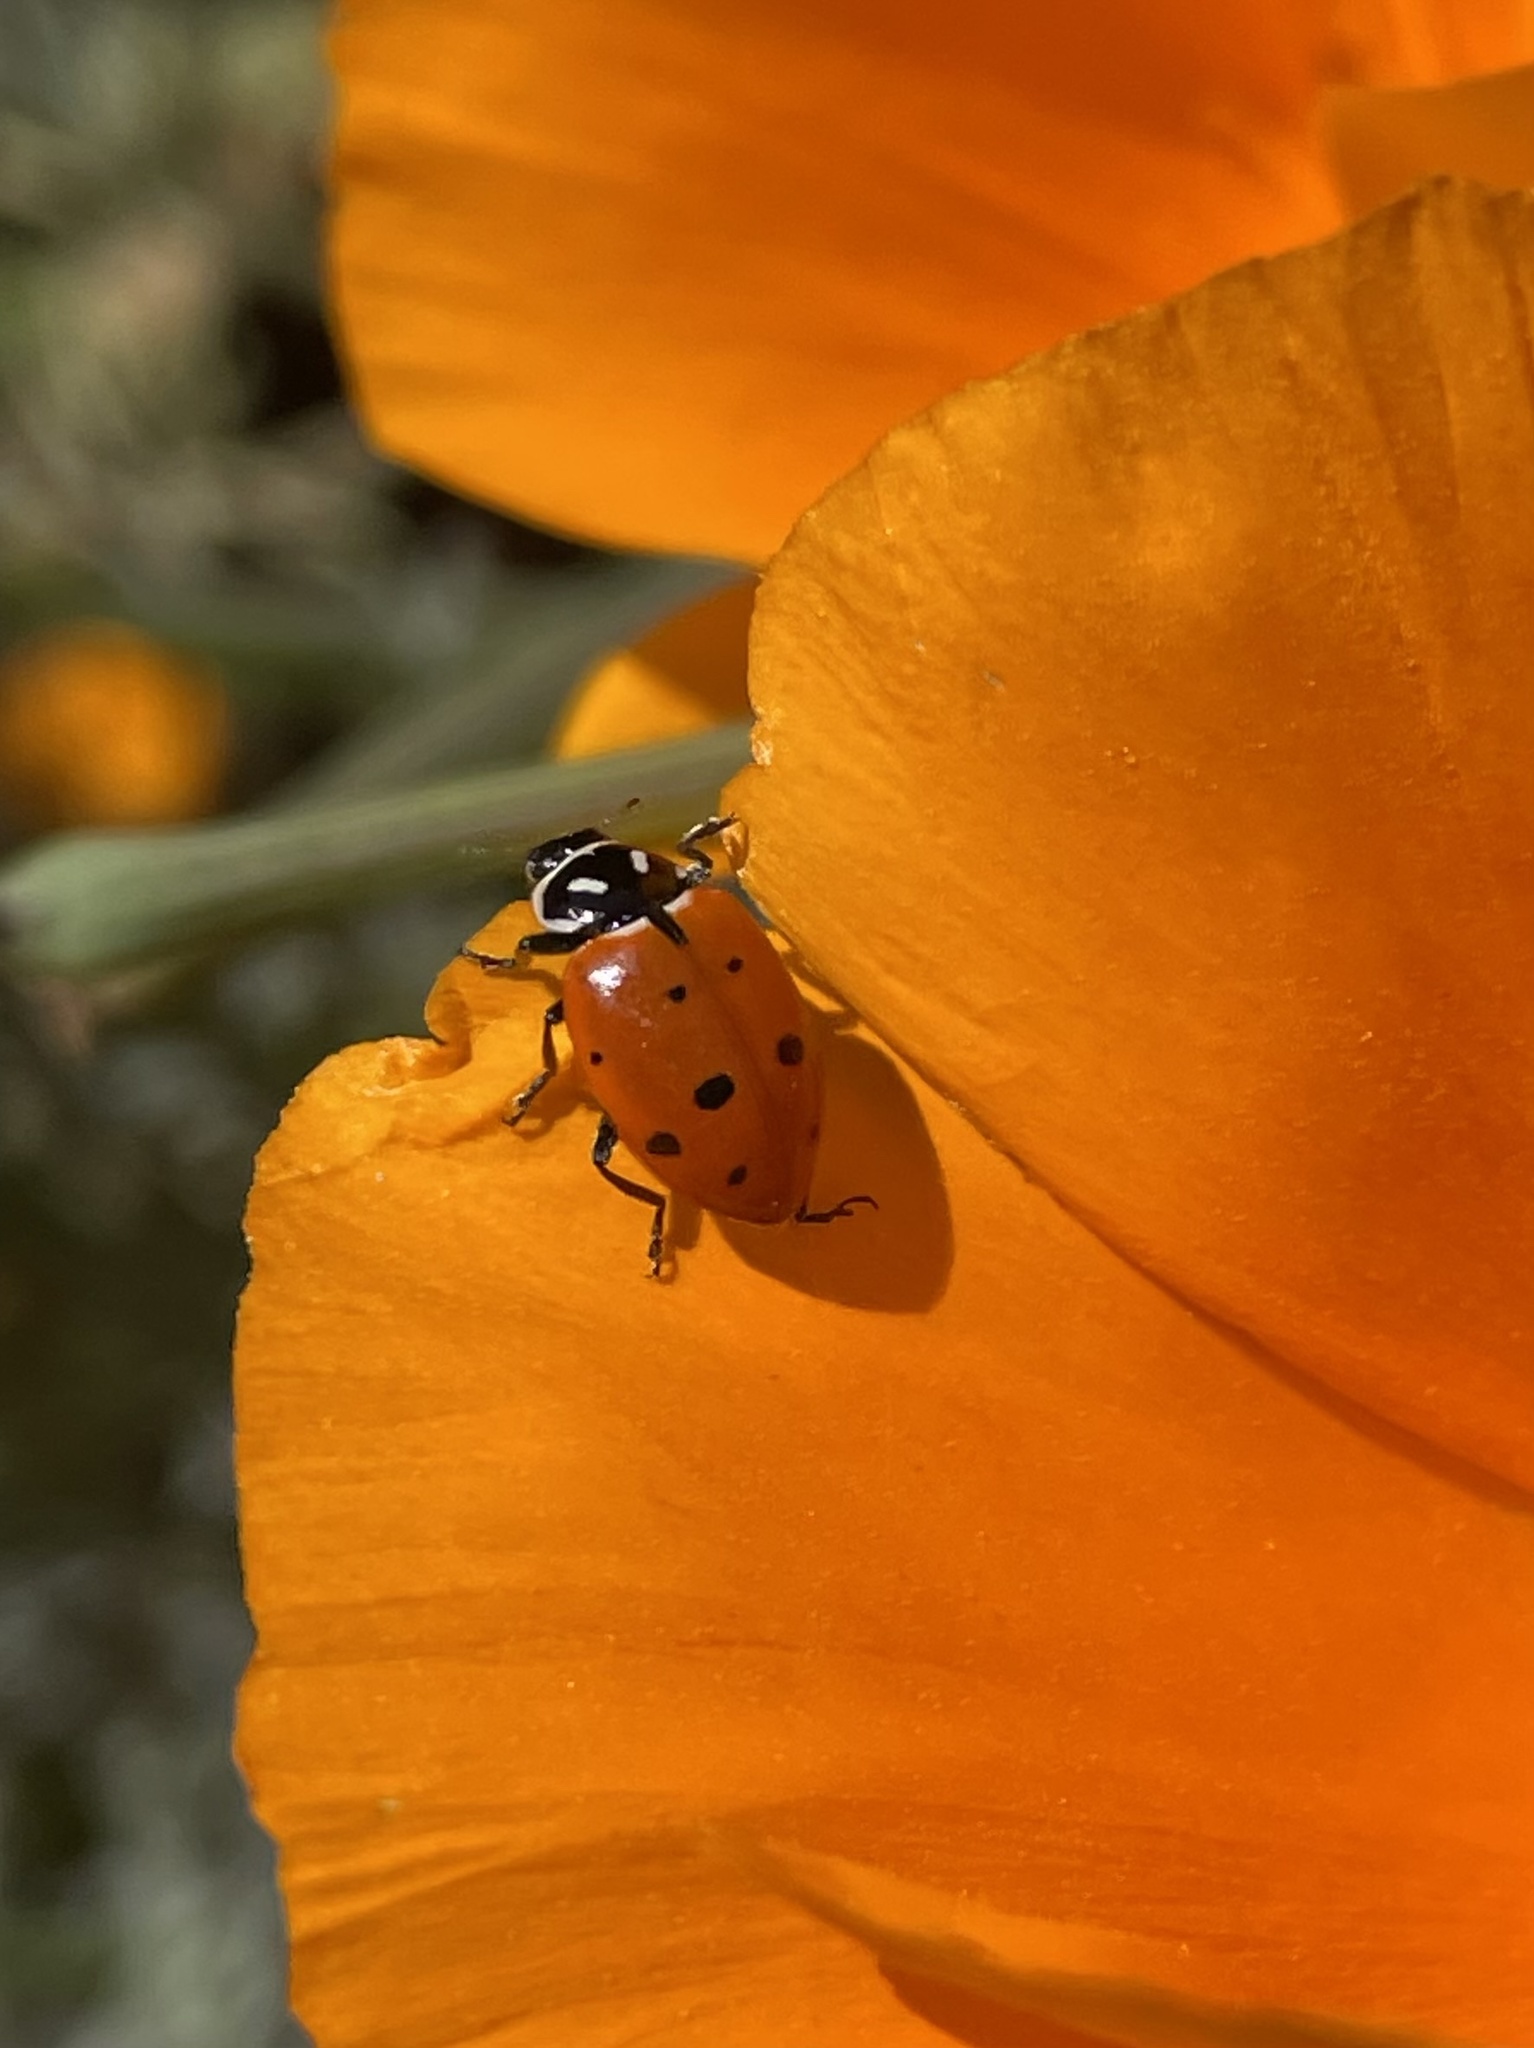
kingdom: Animalia
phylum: Arthropoda
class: Insecta
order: Coleoptera
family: Coccinellidae
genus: Hippodamia
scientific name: Hippodamia convergens
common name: Convergent lady beetle
